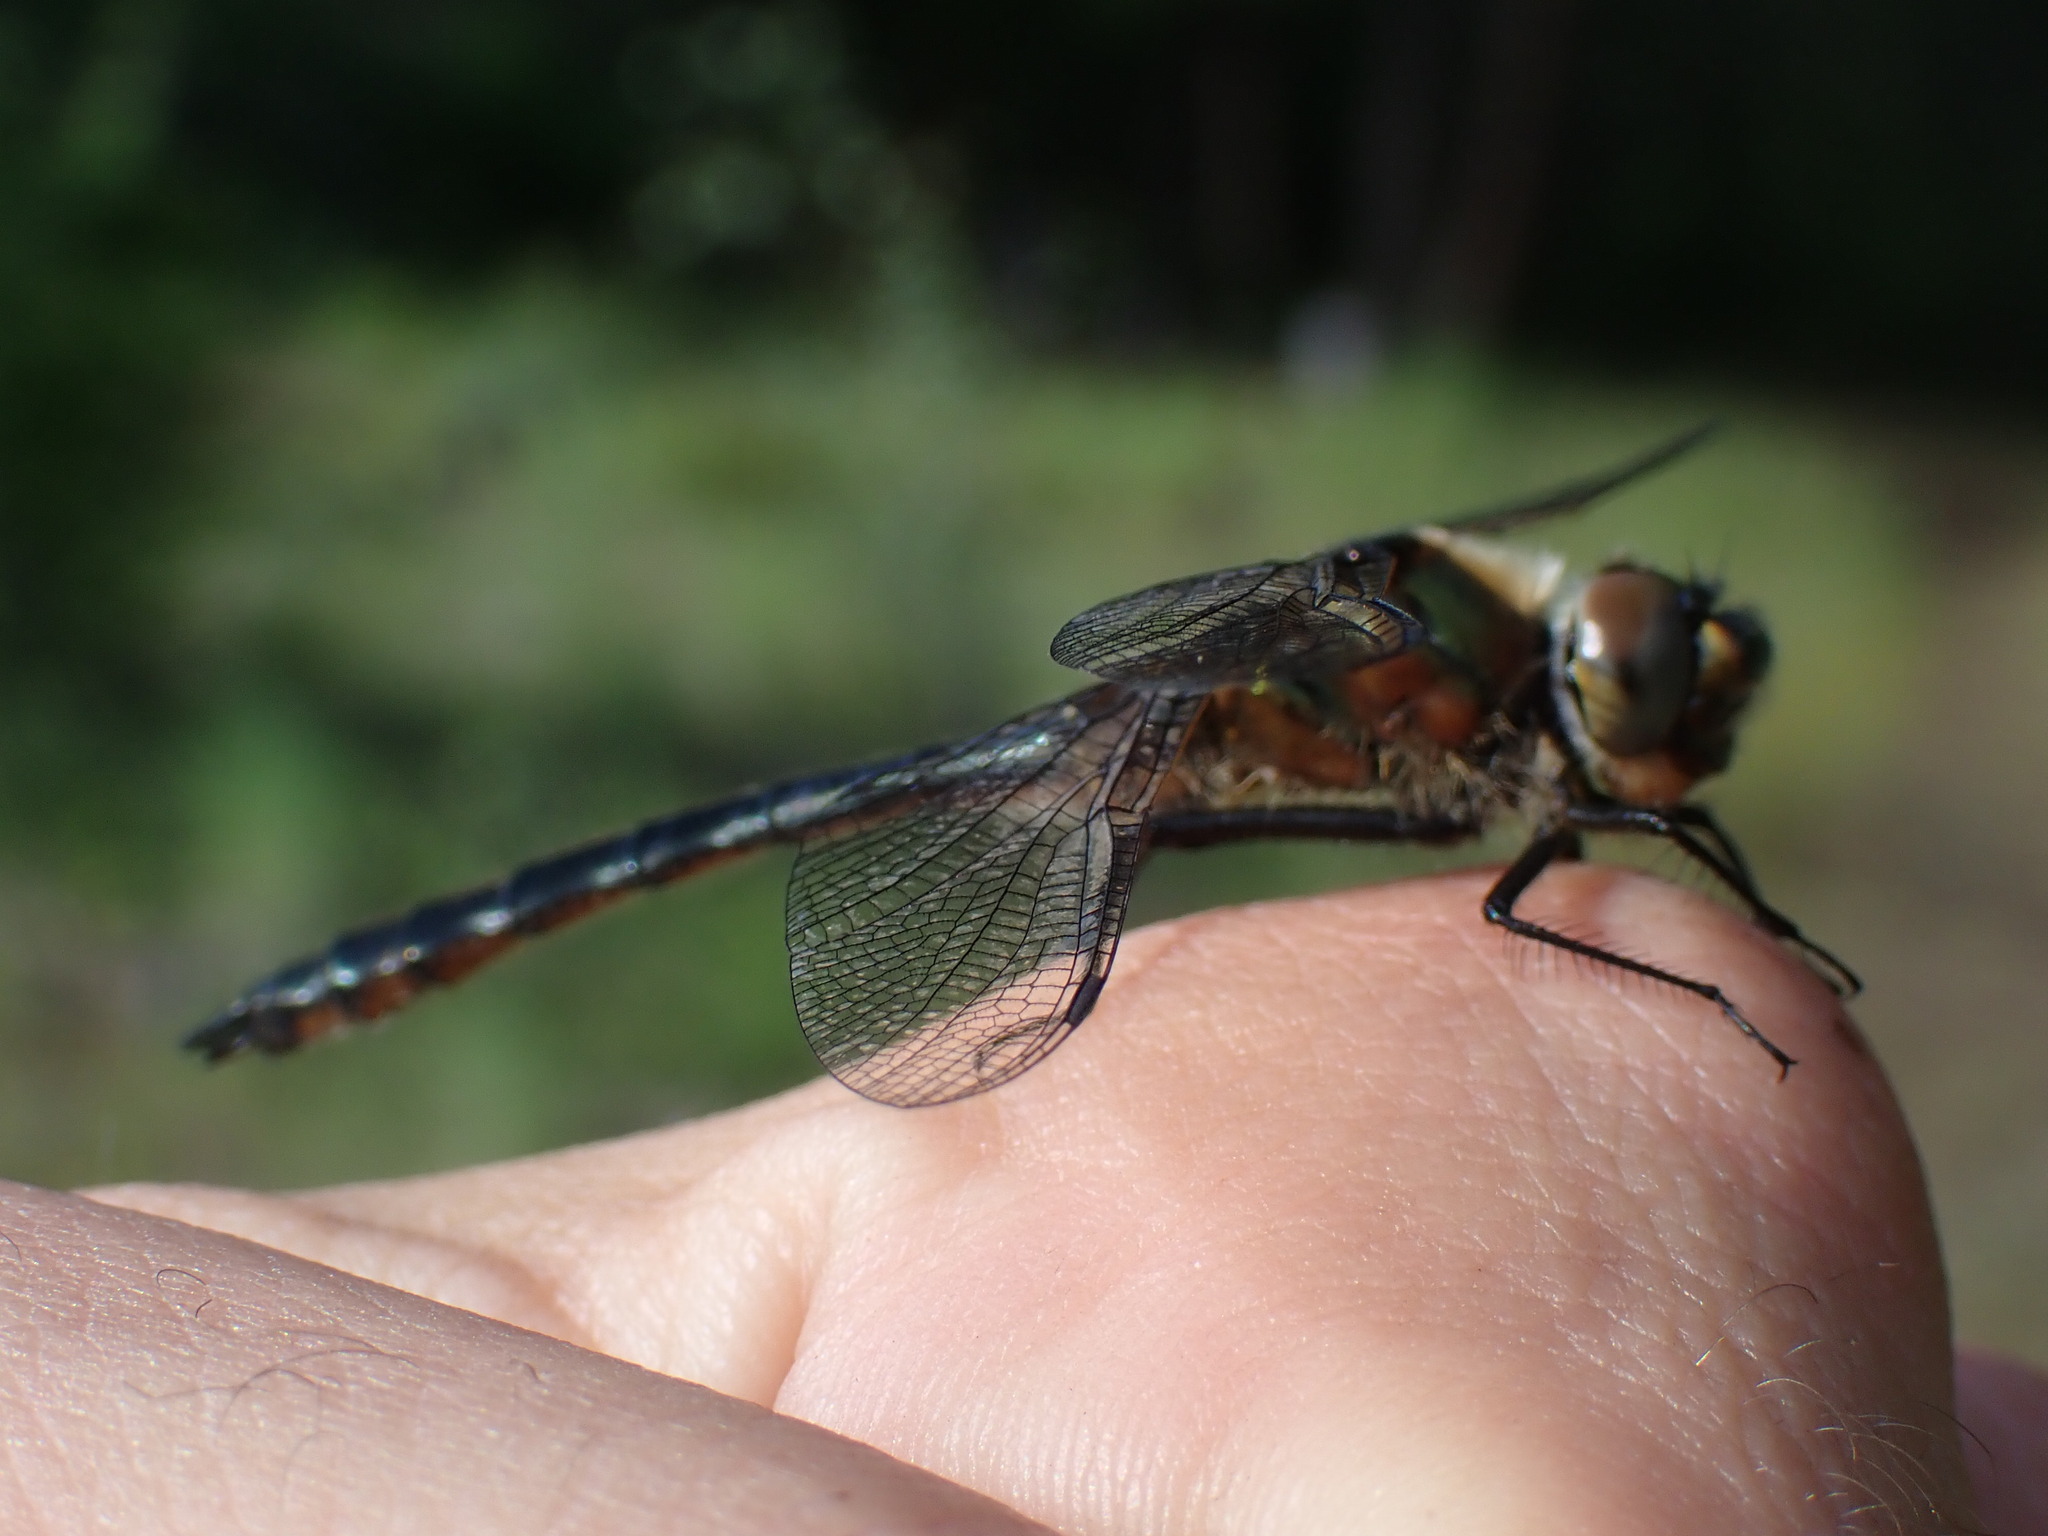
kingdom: Animalia
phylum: Arthropoda
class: Insecta
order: Odonata
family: Corduliidae
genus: Cordulia
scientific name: Cordulia shurtleffii
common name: American emerald
